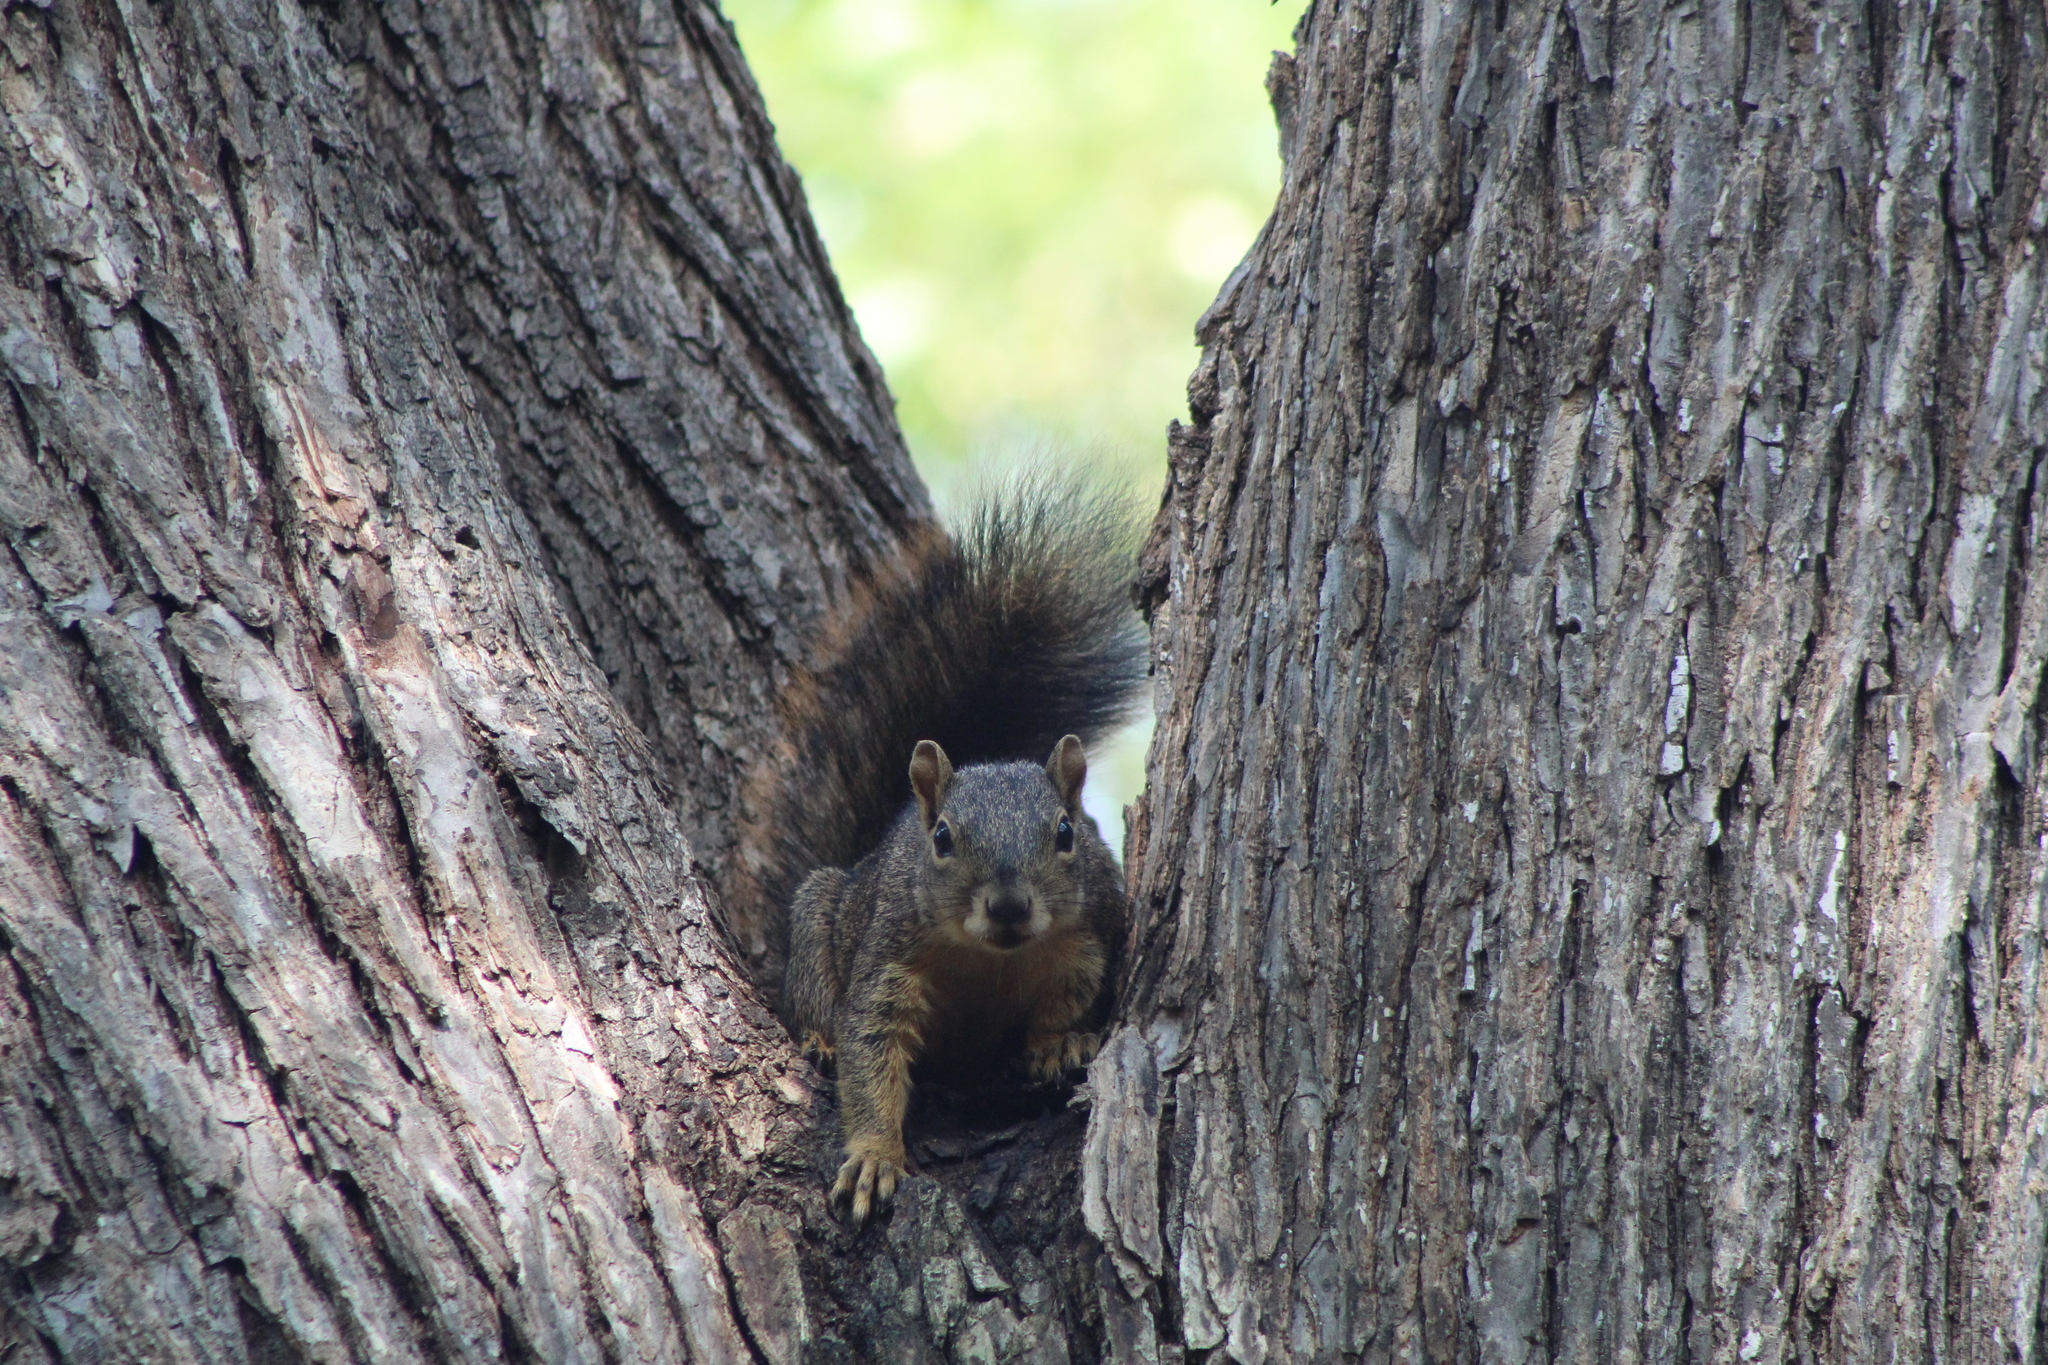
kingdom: Animalia
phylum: Chordata
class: Mammalia
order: Rodentia
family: Sciuridae
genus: Sciurus
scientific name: Sciurus niger
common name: Fox squirrel
